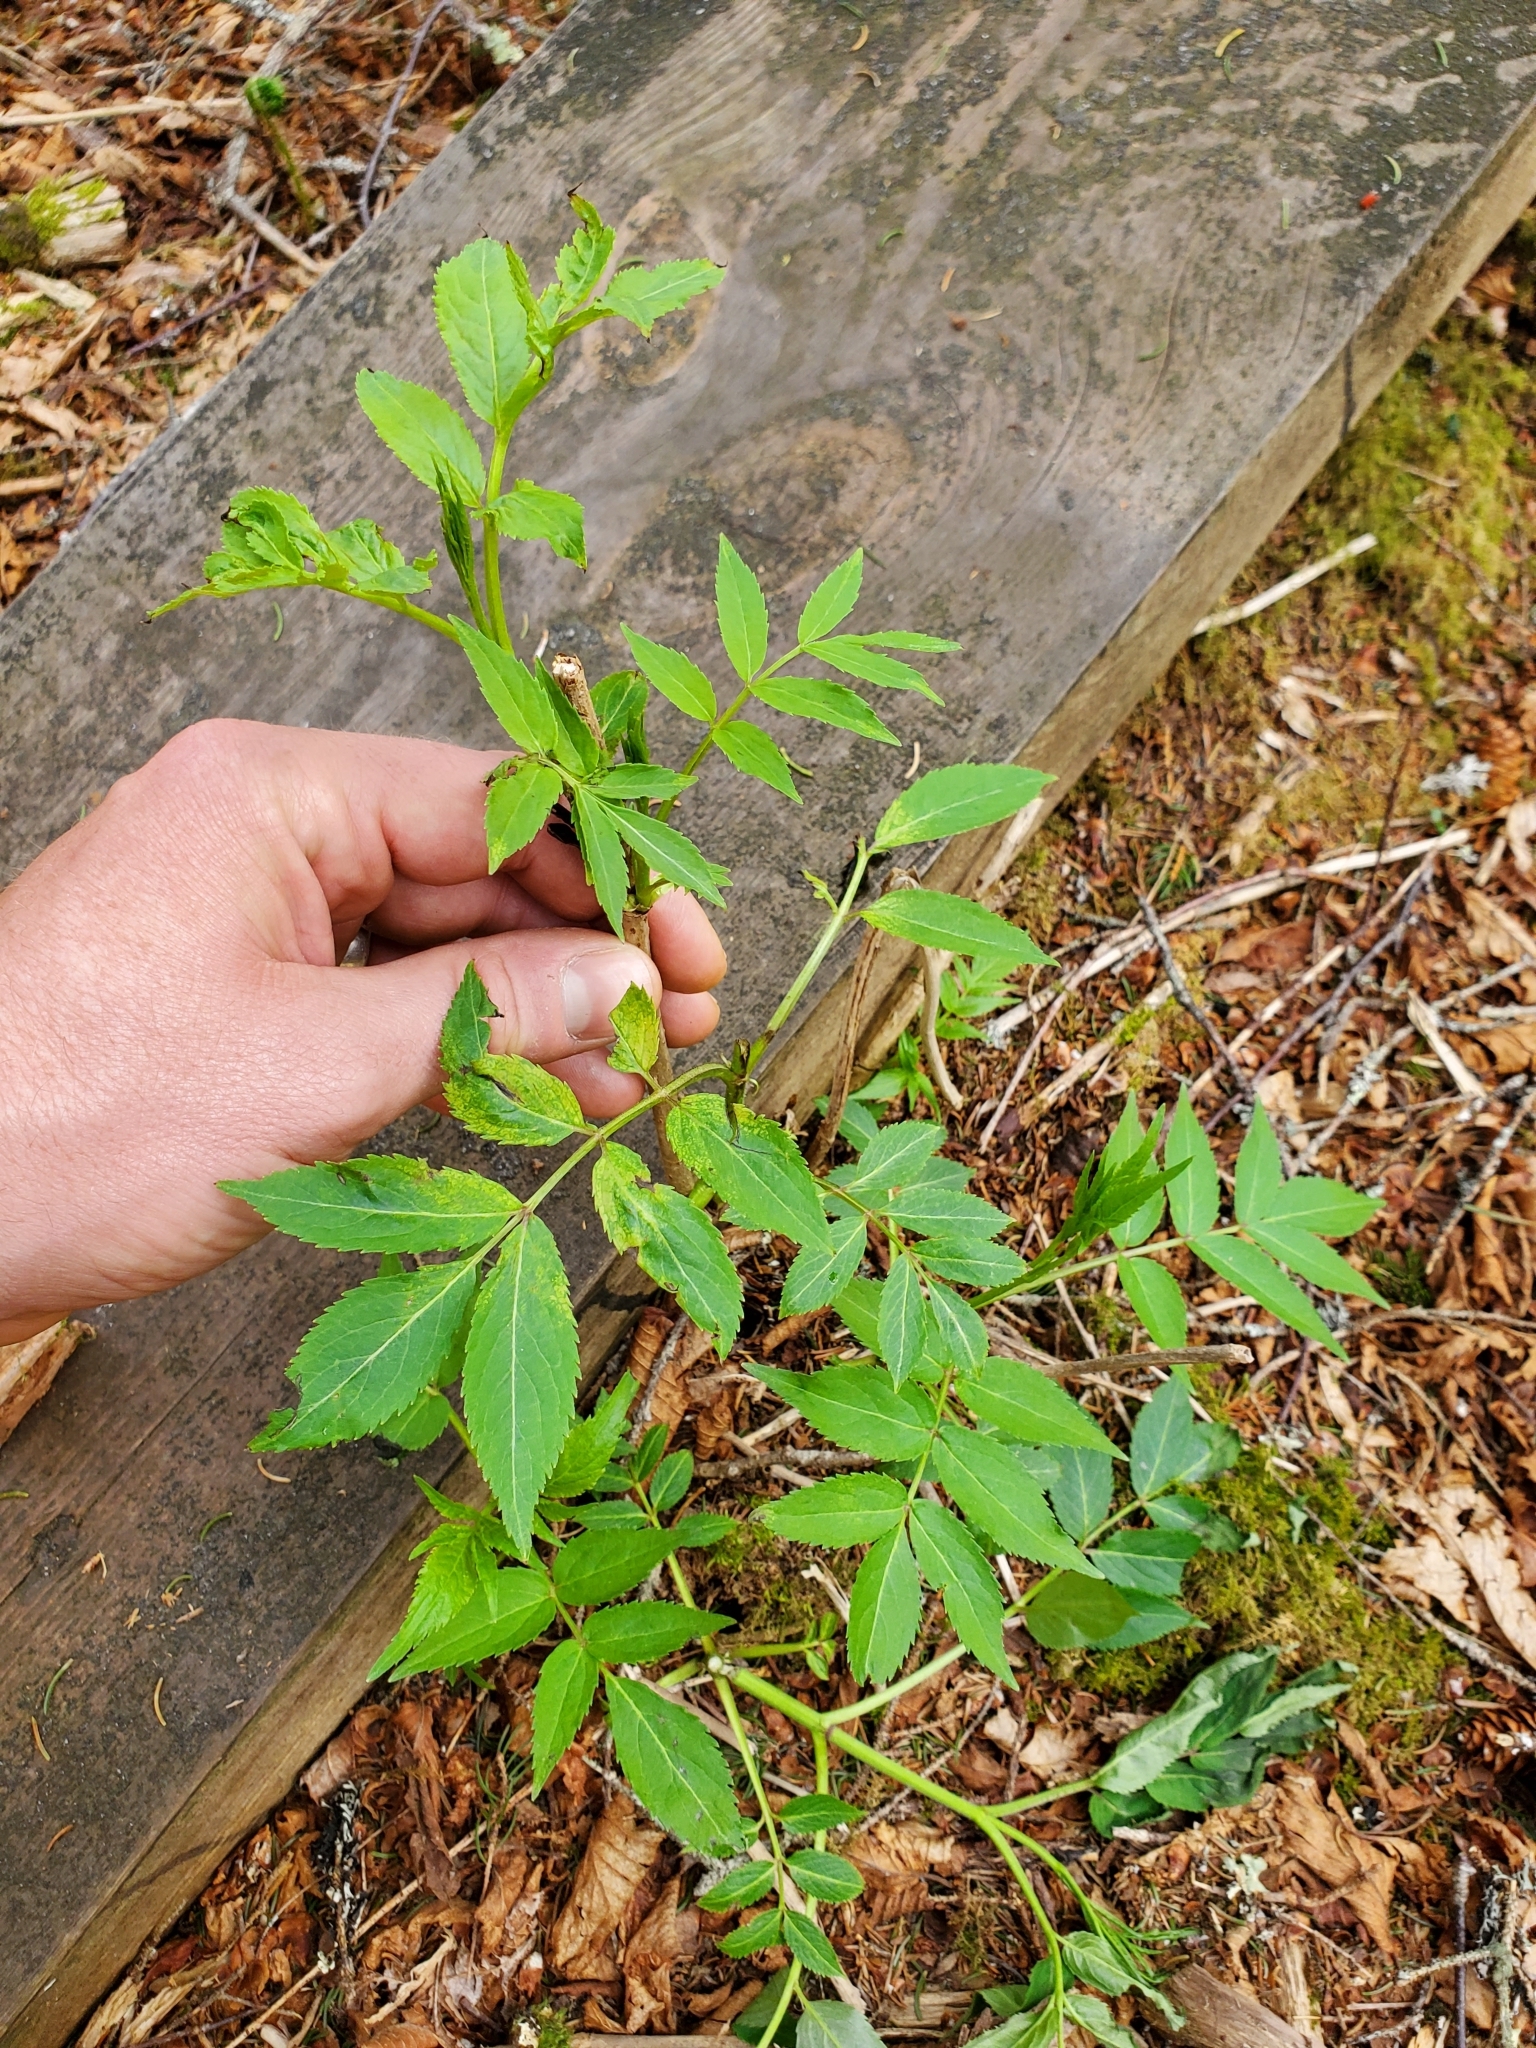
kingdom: Plantae
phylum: Tracheophyta
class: Magnoliopsida
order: Dipsacales
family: Viburnaceae
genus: Sambucus
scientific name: Sambucus racemosa
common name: Red-berried elder
